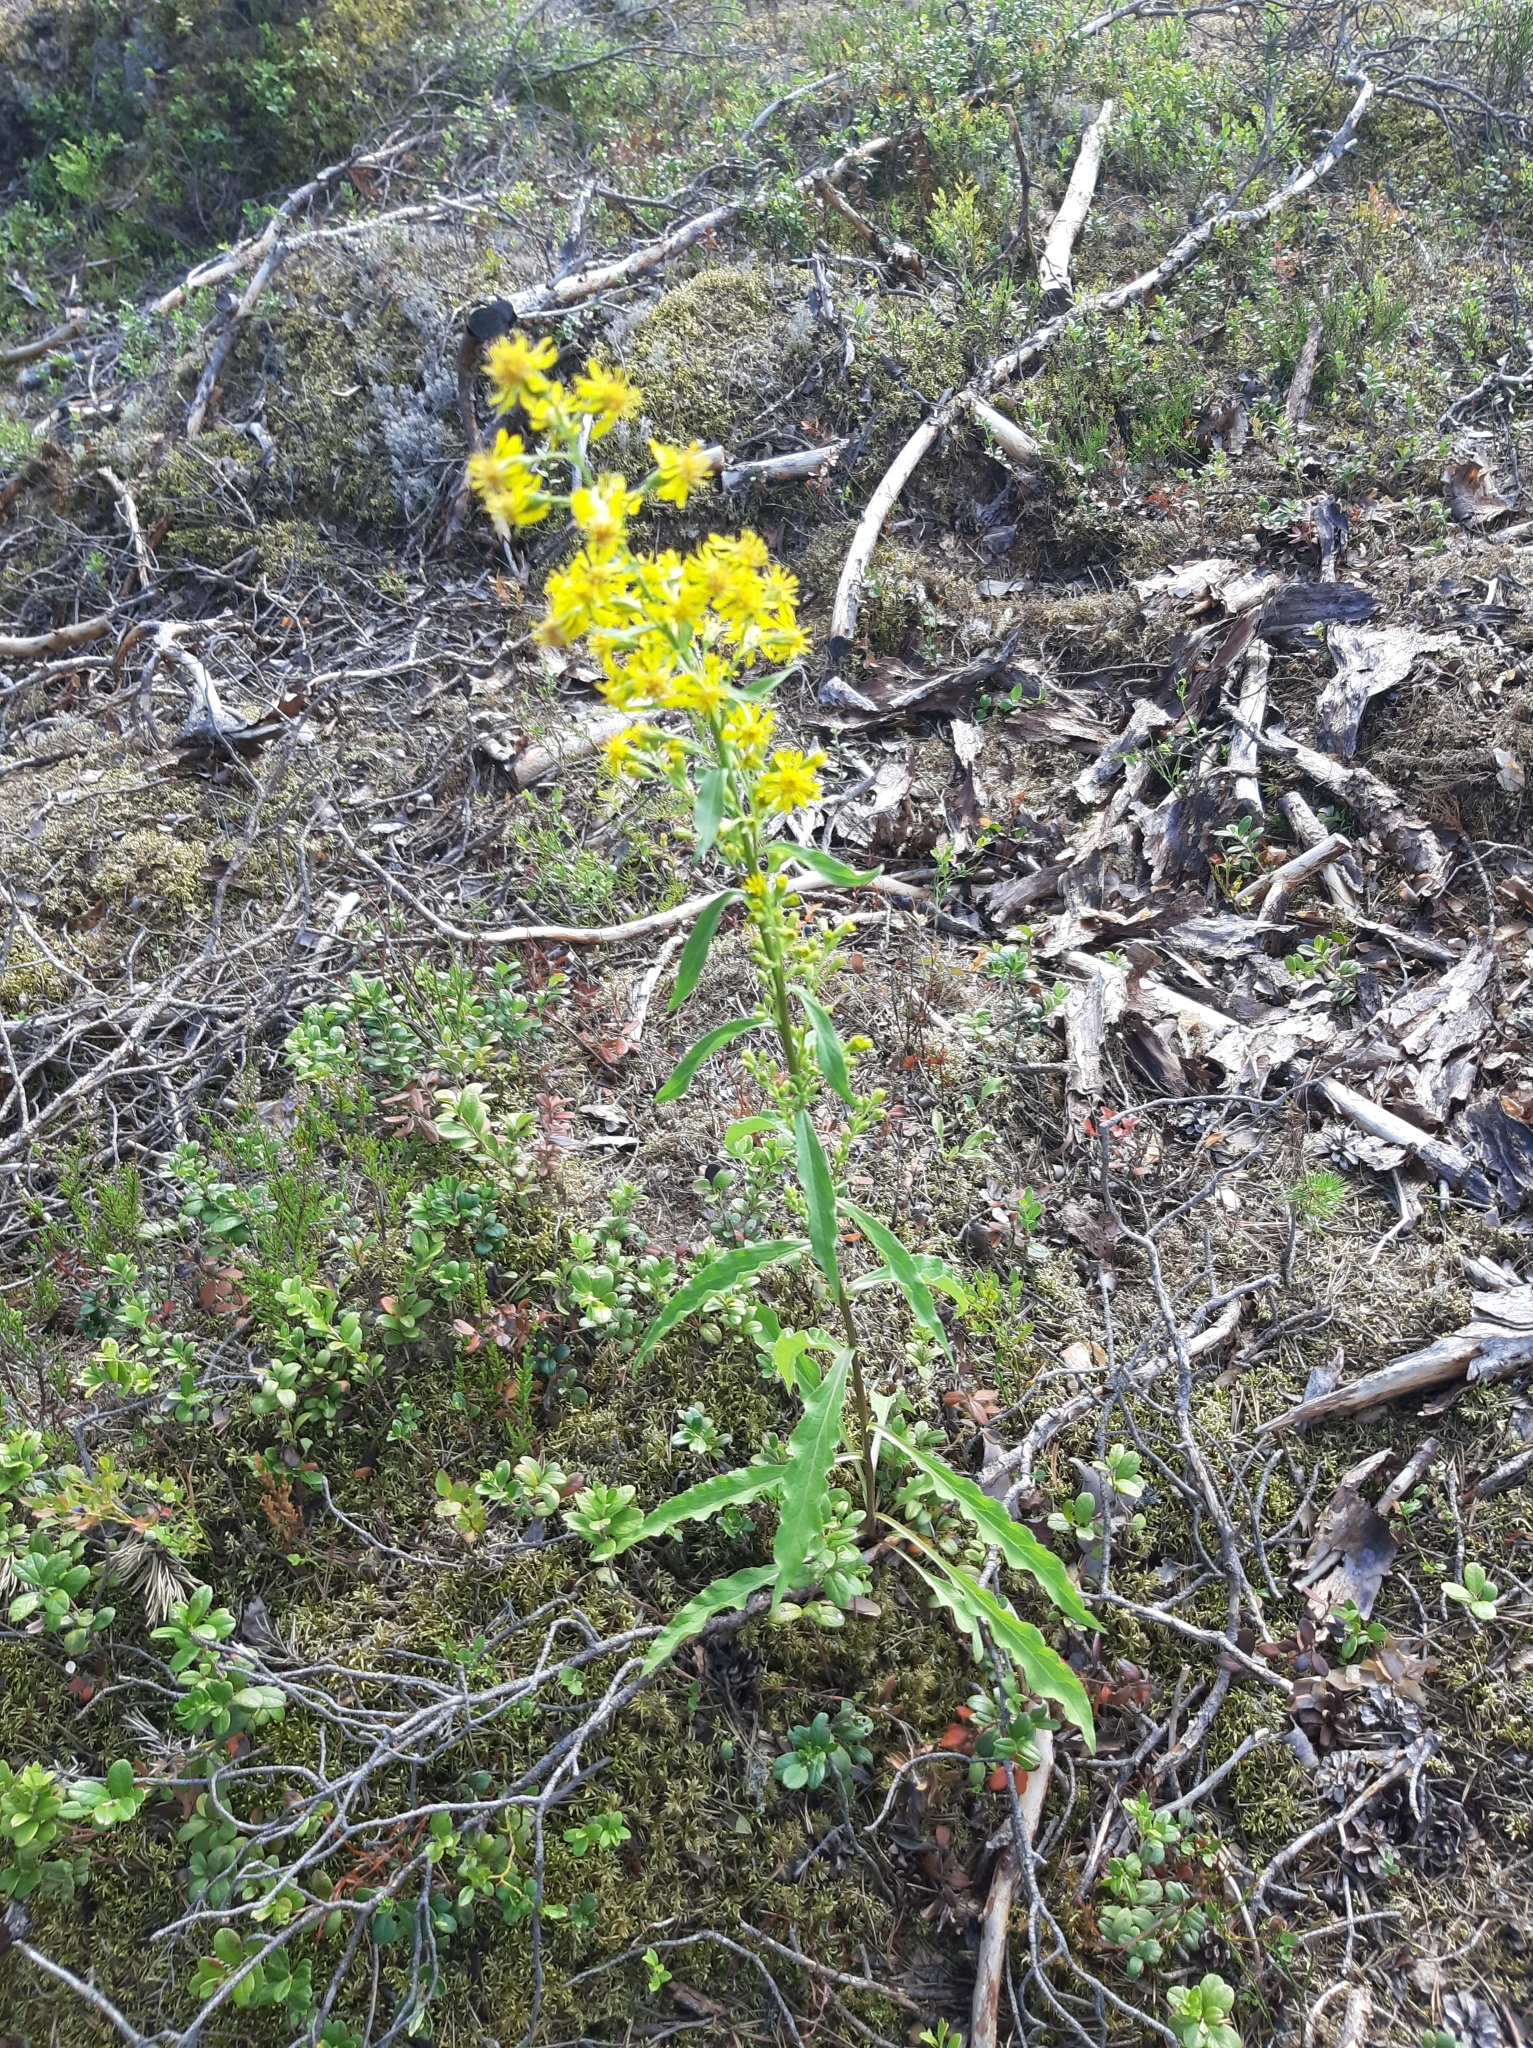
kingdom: Plantae
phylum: Tracheophyta
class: Magnoliopsida
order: Asterales
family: Asteraceae
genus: Solidago
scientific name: Solidago virgaurea
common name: Goldenrod
